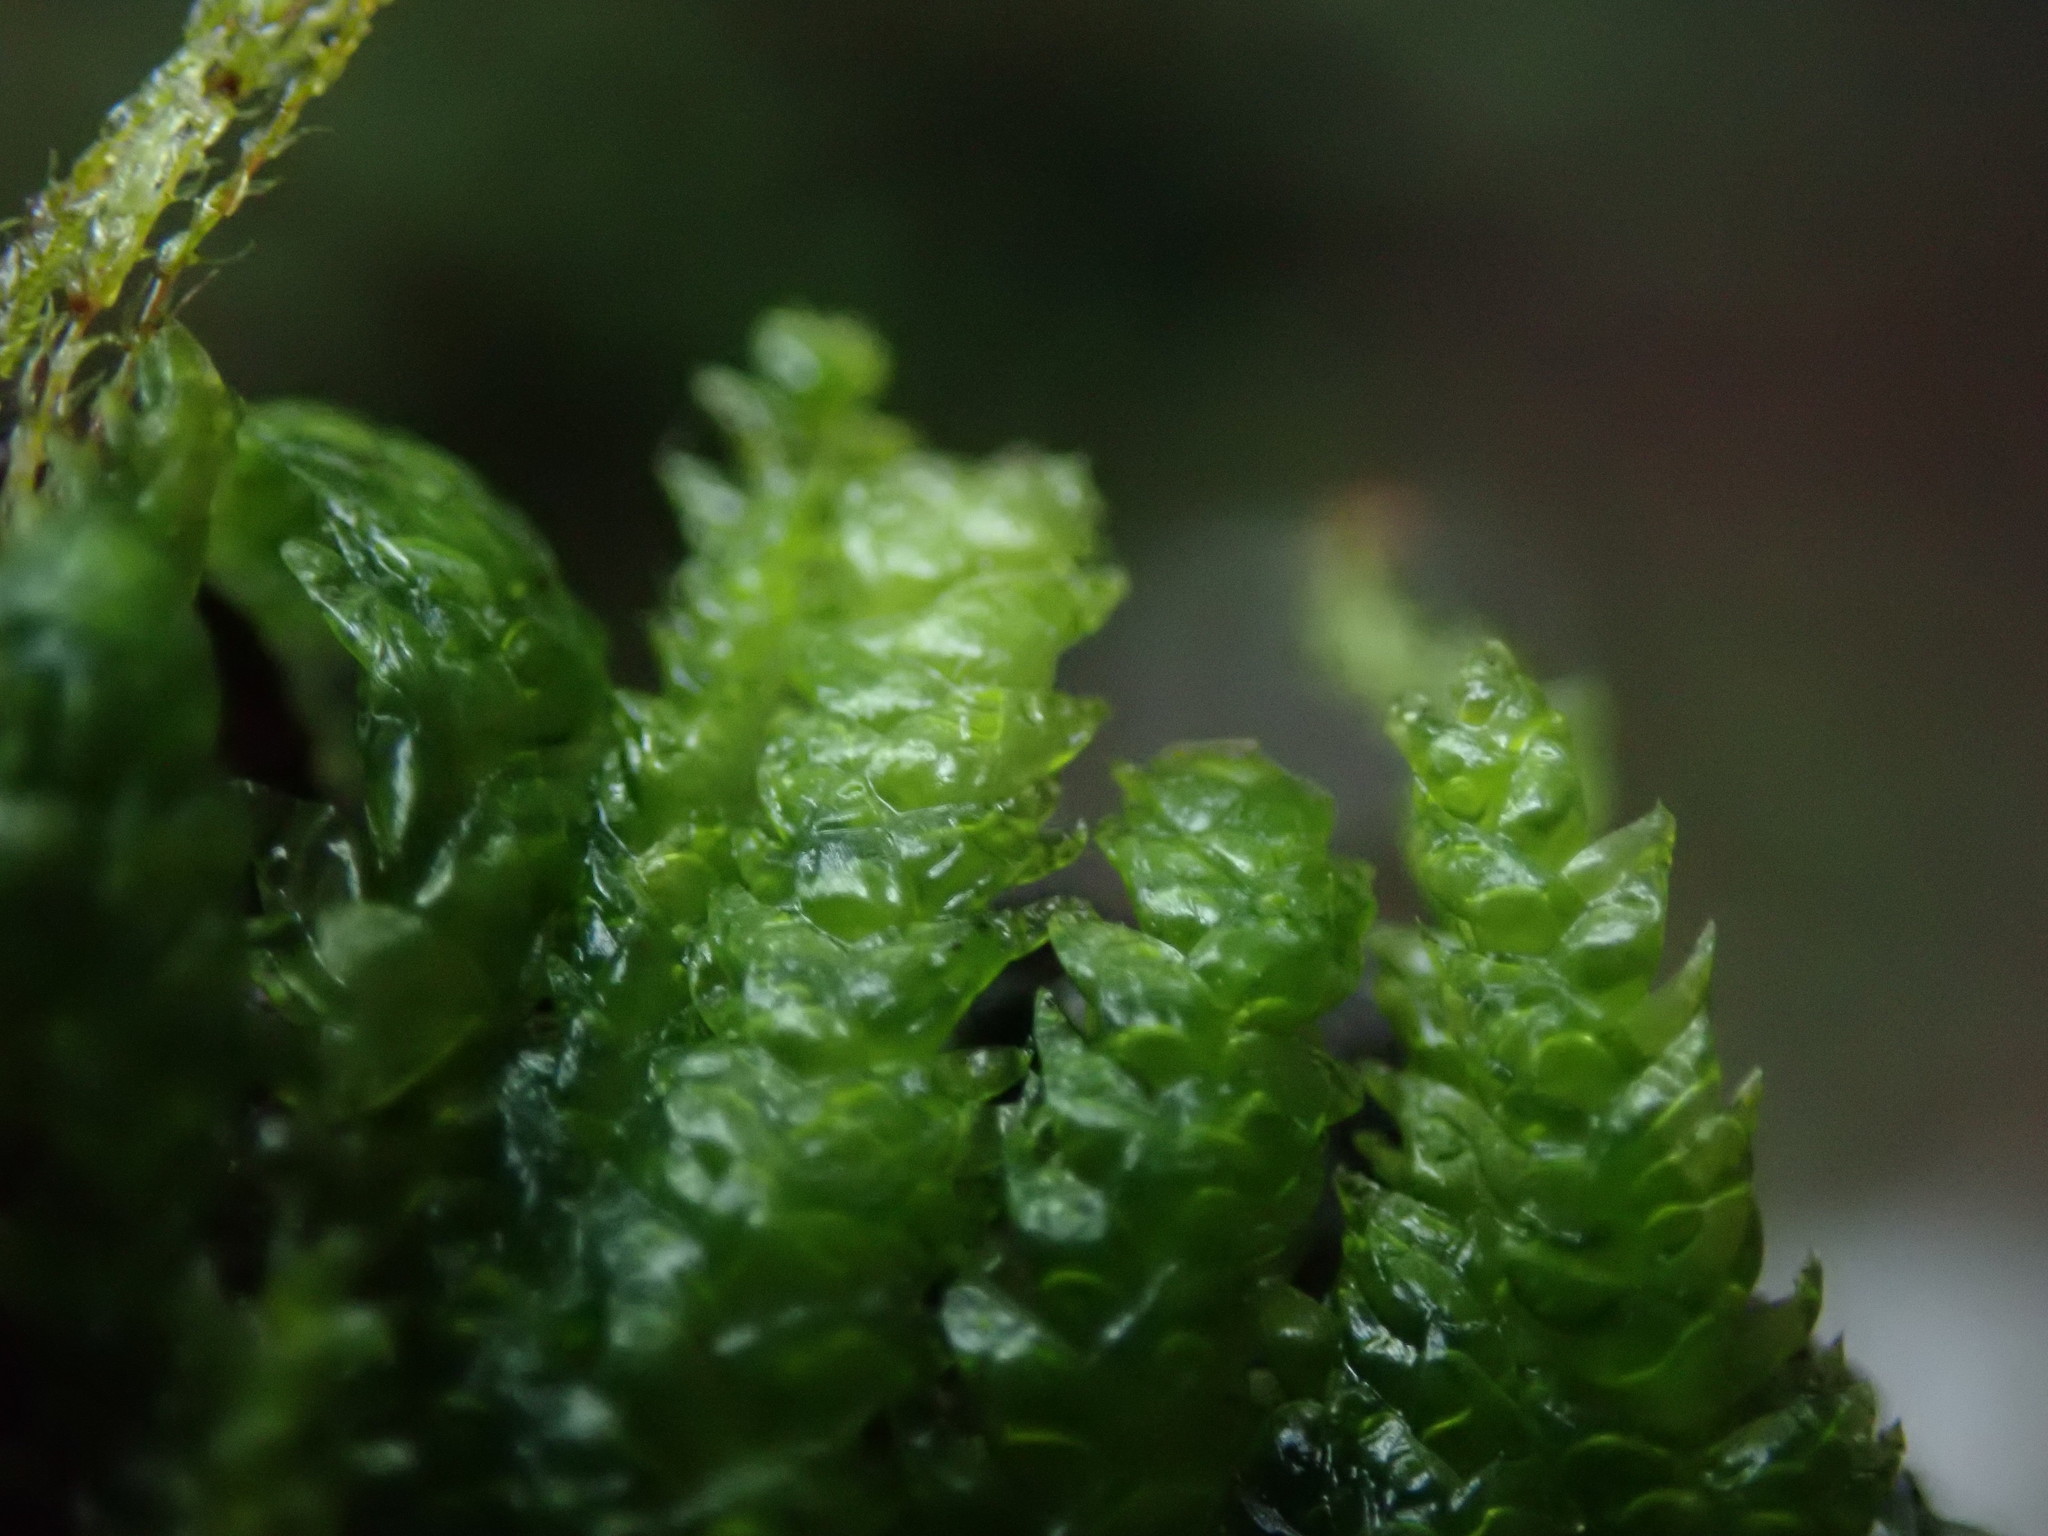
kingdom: Plantae
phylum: Bryophyta
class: Bryopsida
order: Hypnales
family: Plagiotheciaceae
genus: Plagiothecium
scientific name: Plagiothecium undulatum
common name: Waved silk-moss
